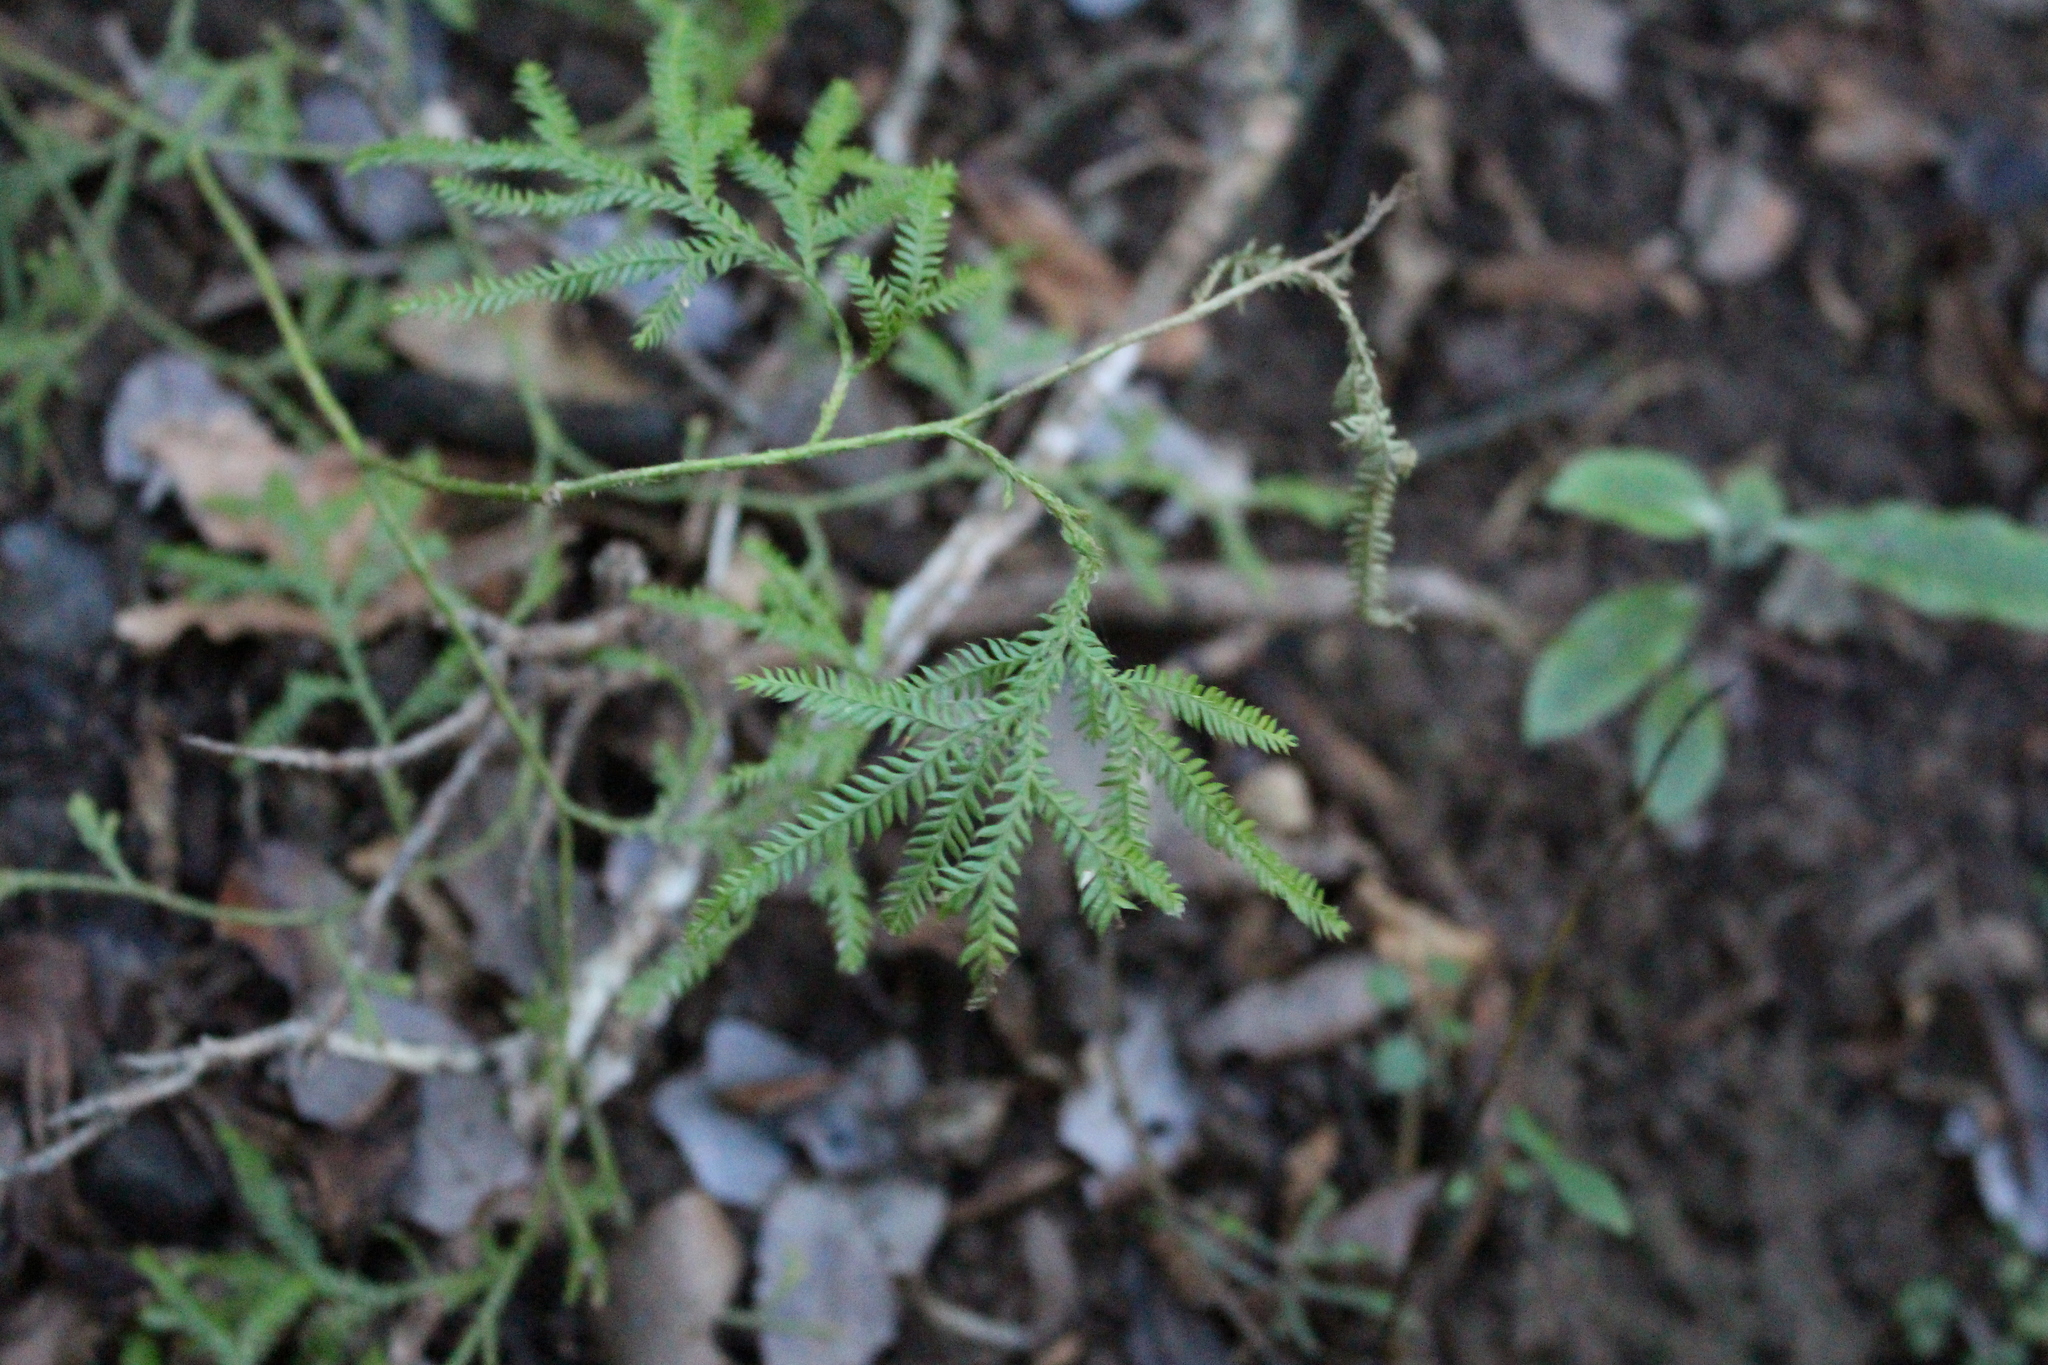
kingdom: Plantae
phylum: Tracheophyta
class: Lycopodiopsida
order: Lycopodiales
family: Lycopodiaceae
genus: Lycopodium
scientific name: Lycopodium volubile
